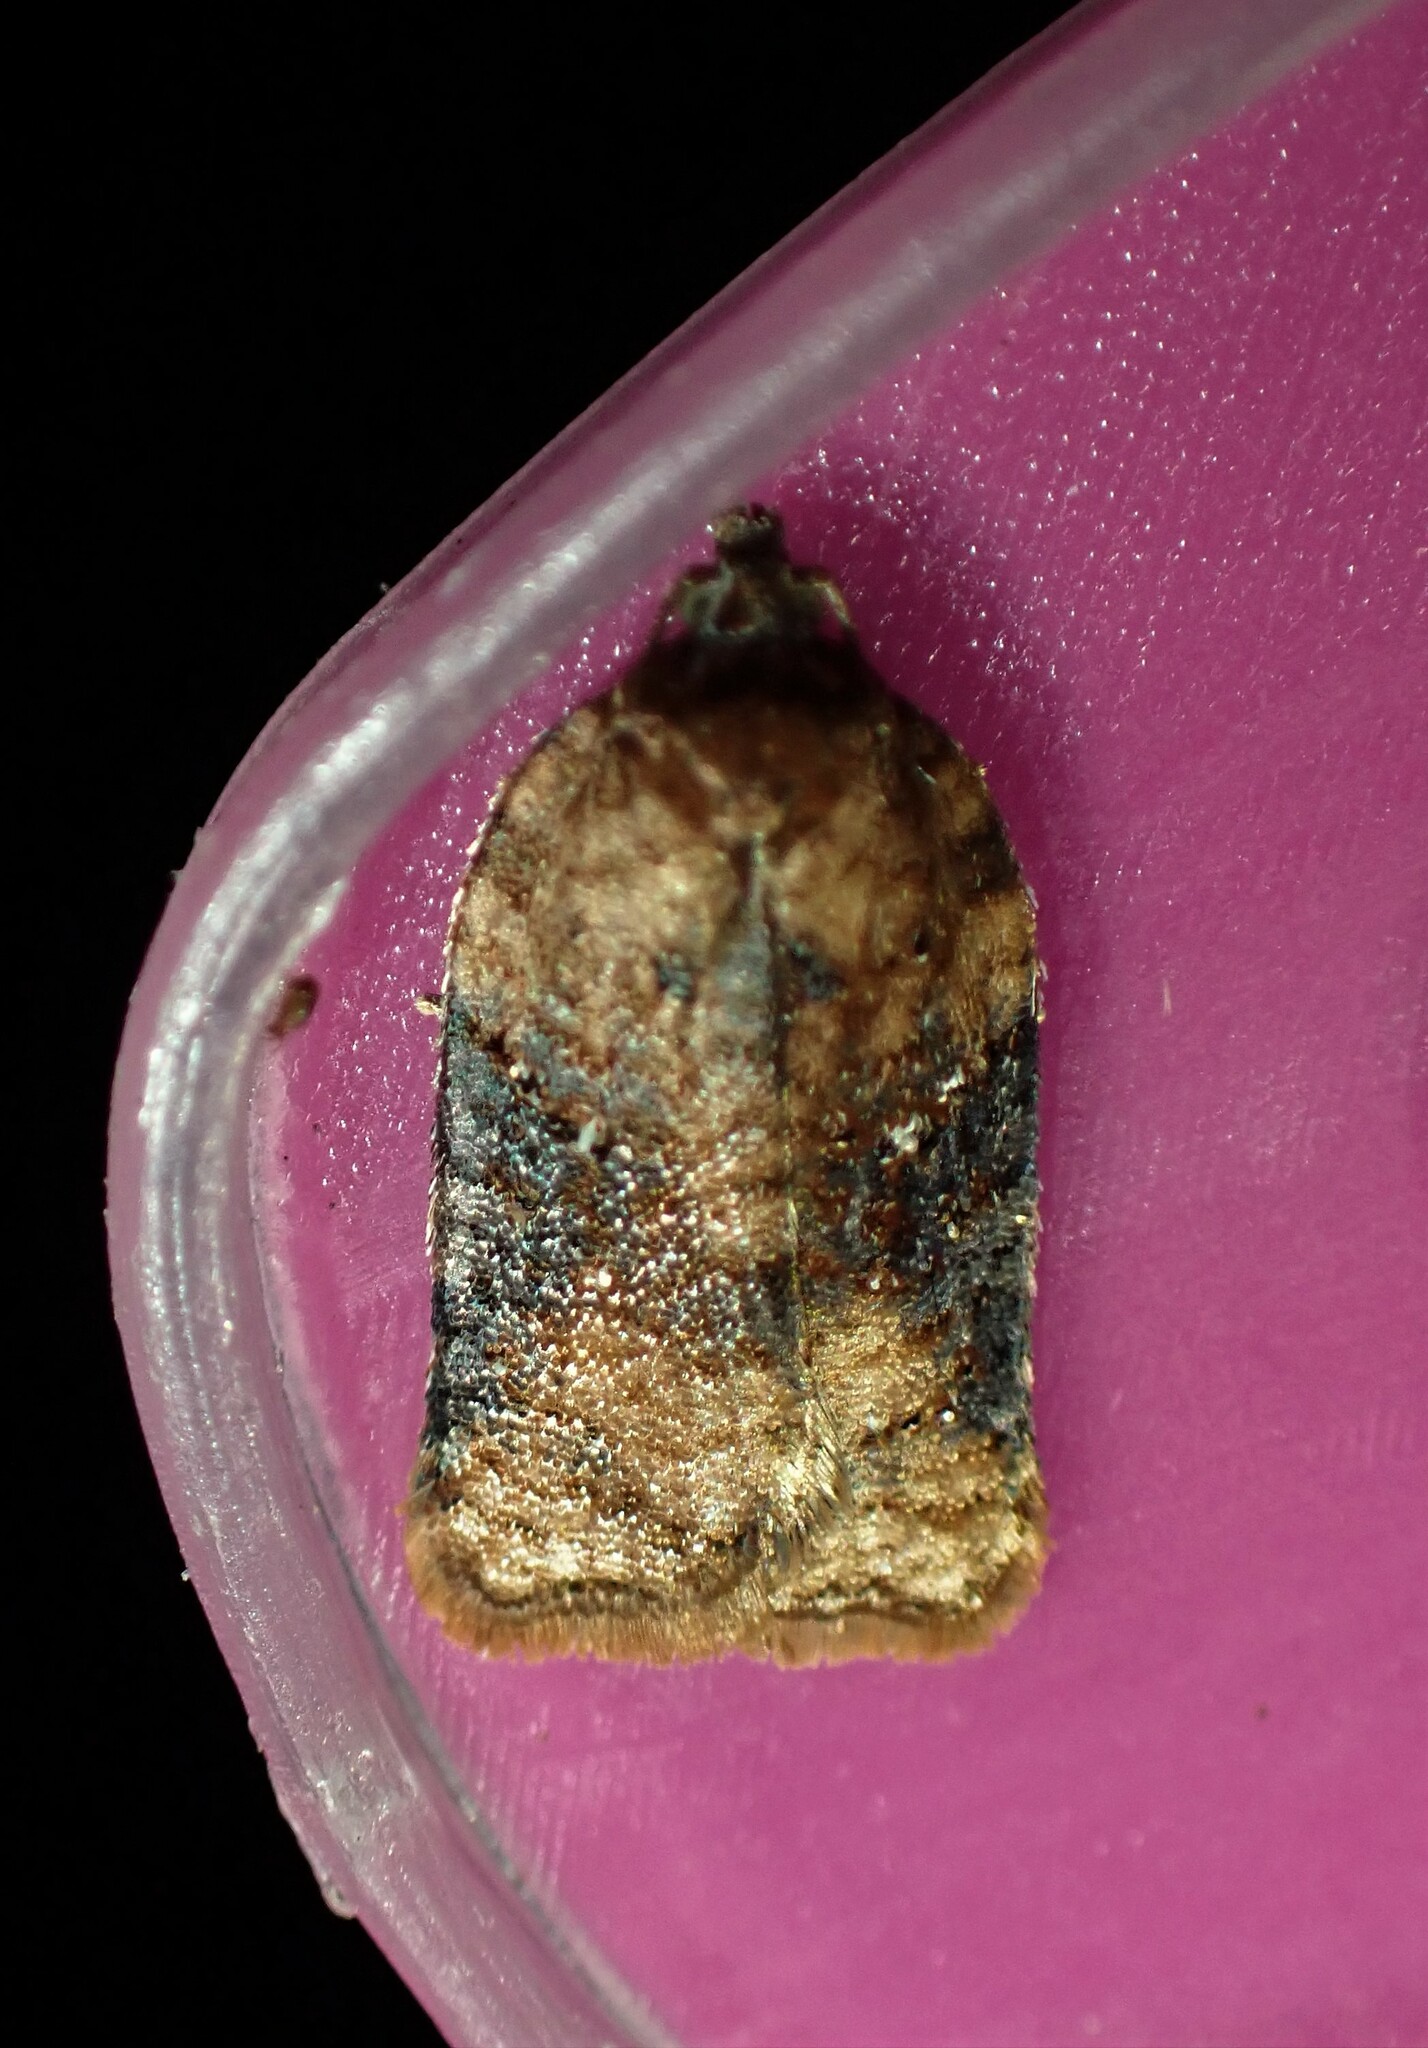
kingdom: Animalia
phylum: Arthropoda
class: Insecta
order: Lepidoptera
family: Tortricidae
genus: Acleris
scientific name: Acleris braunana
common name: Alder leafroller
